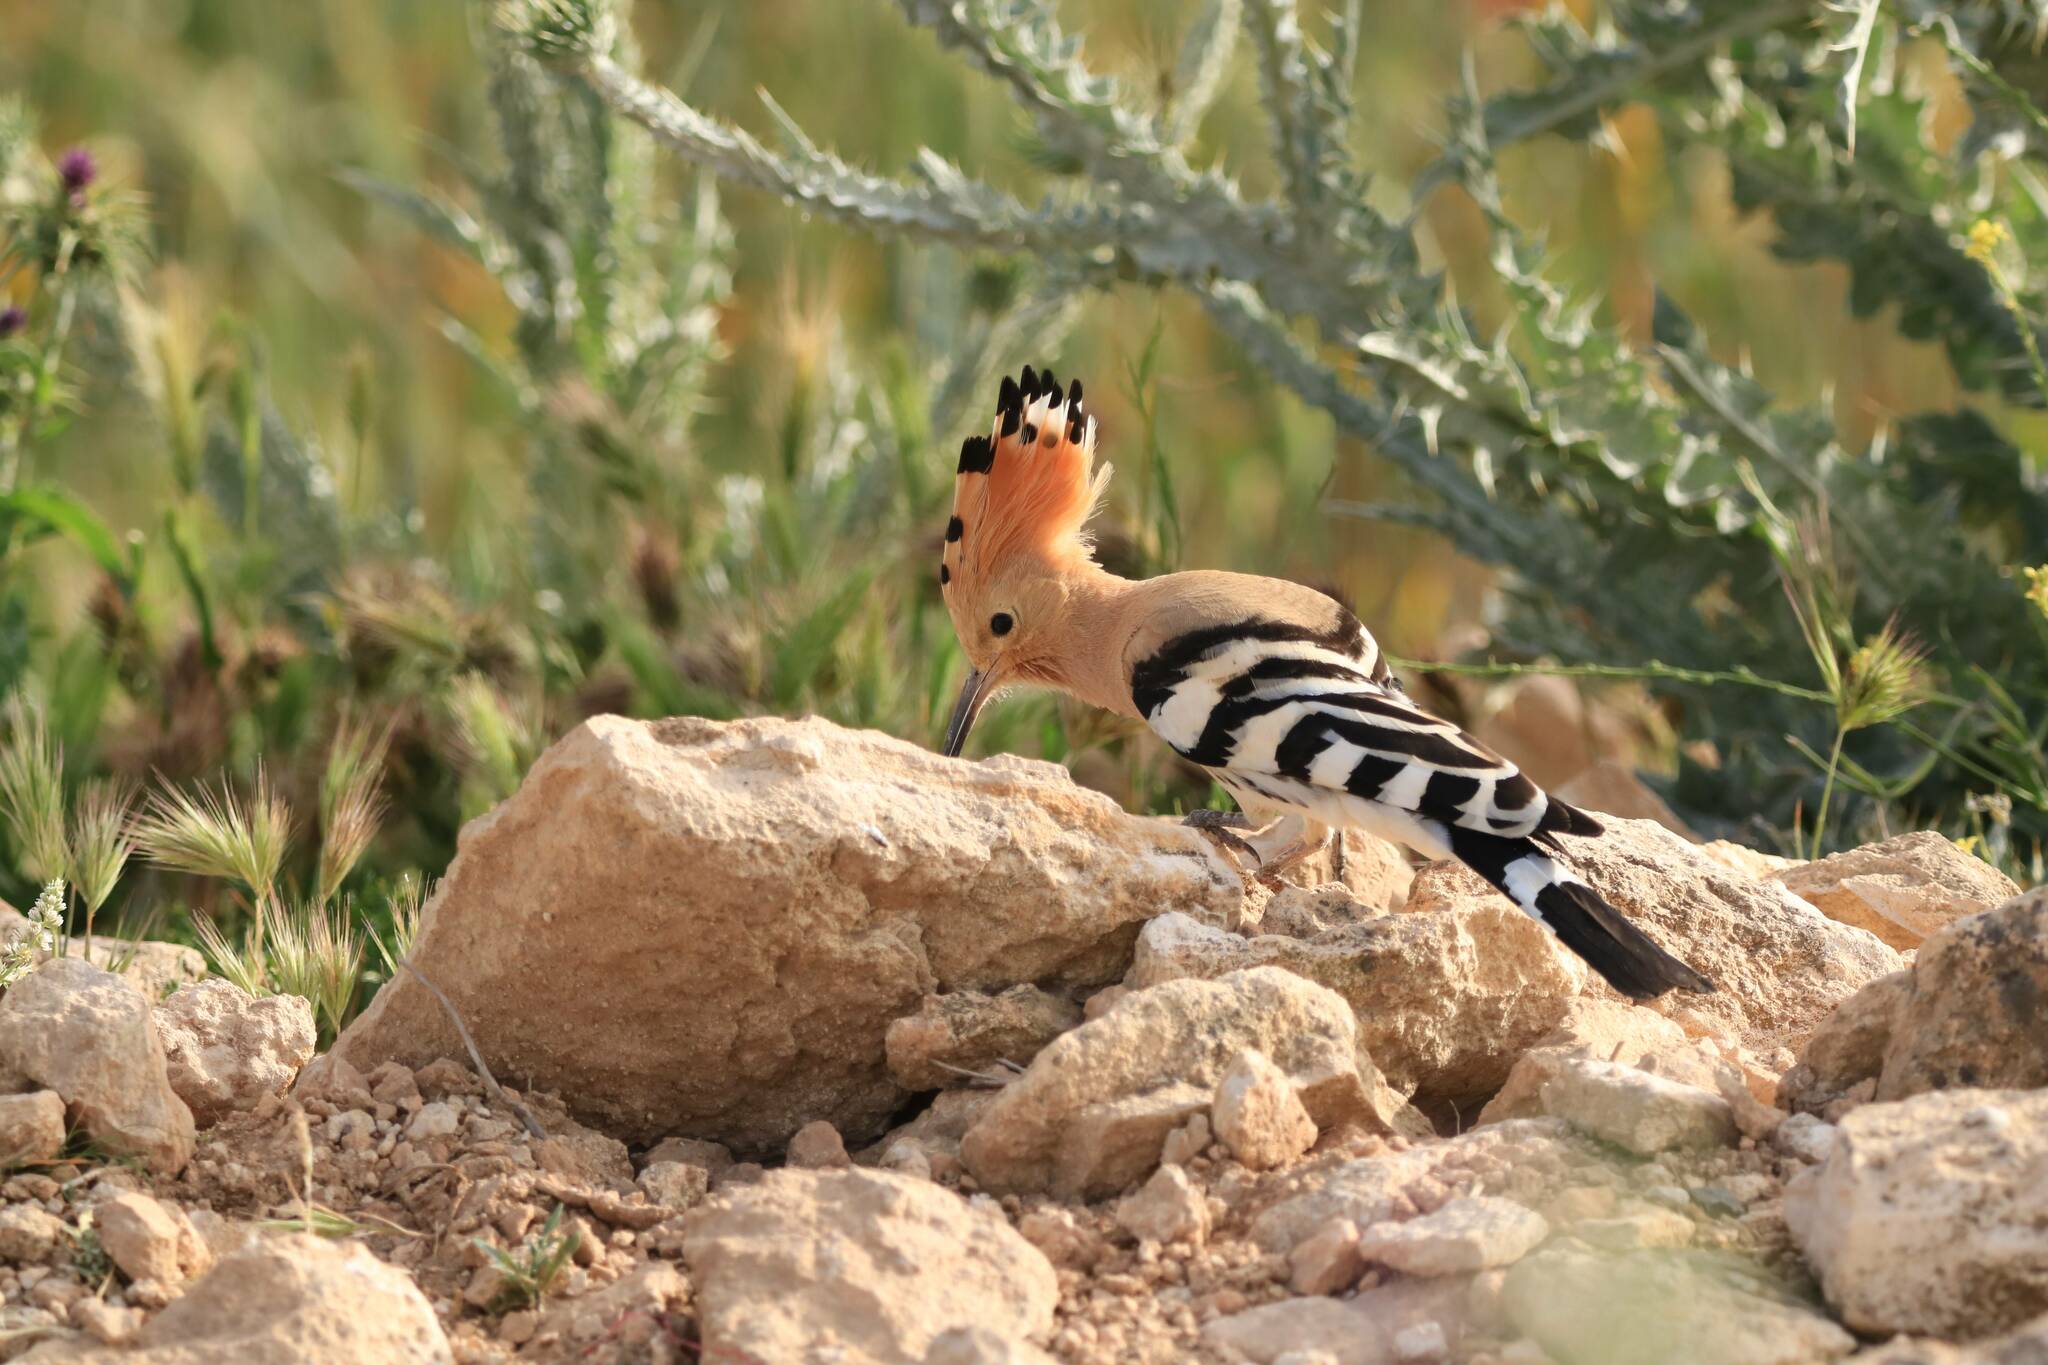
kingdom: Animalia
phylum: Chordata
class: Aves
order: Bucerotiformes
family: Upupidae
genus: Upupa
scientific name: Upupa epops
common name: Eurasian hoopoe
